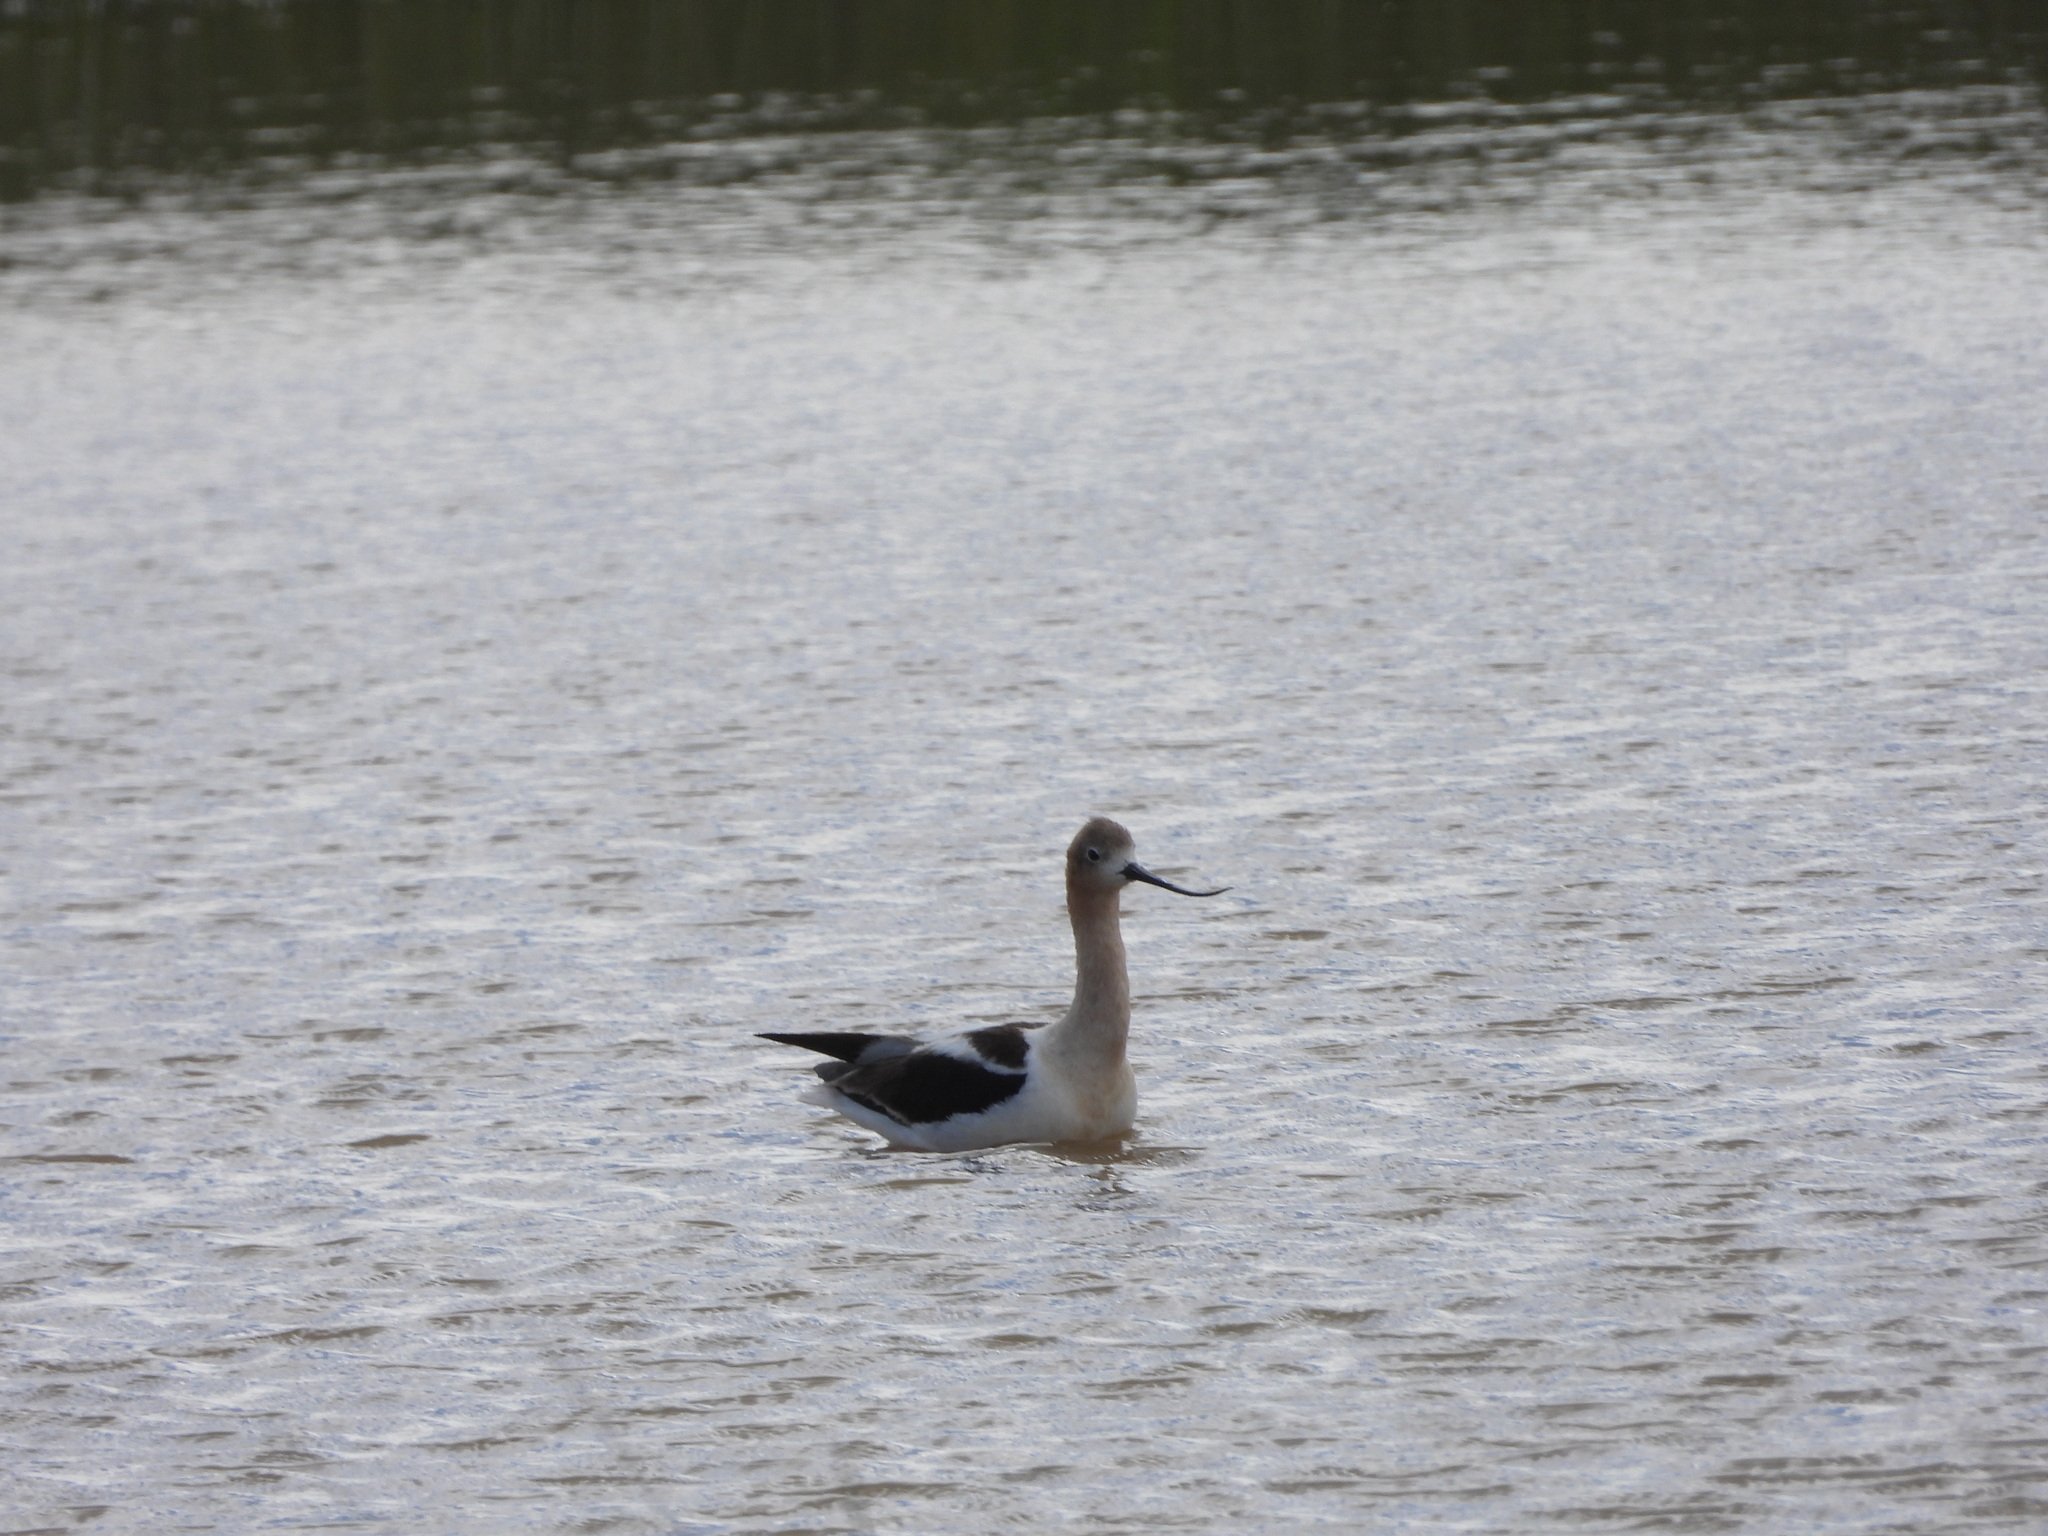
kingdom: Animalia
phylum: Chordata
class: Aves
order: Charadriiformes
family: Recurvirostridae
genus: Recurvirostra
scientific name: Recurvirostra americana
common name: American avocet
